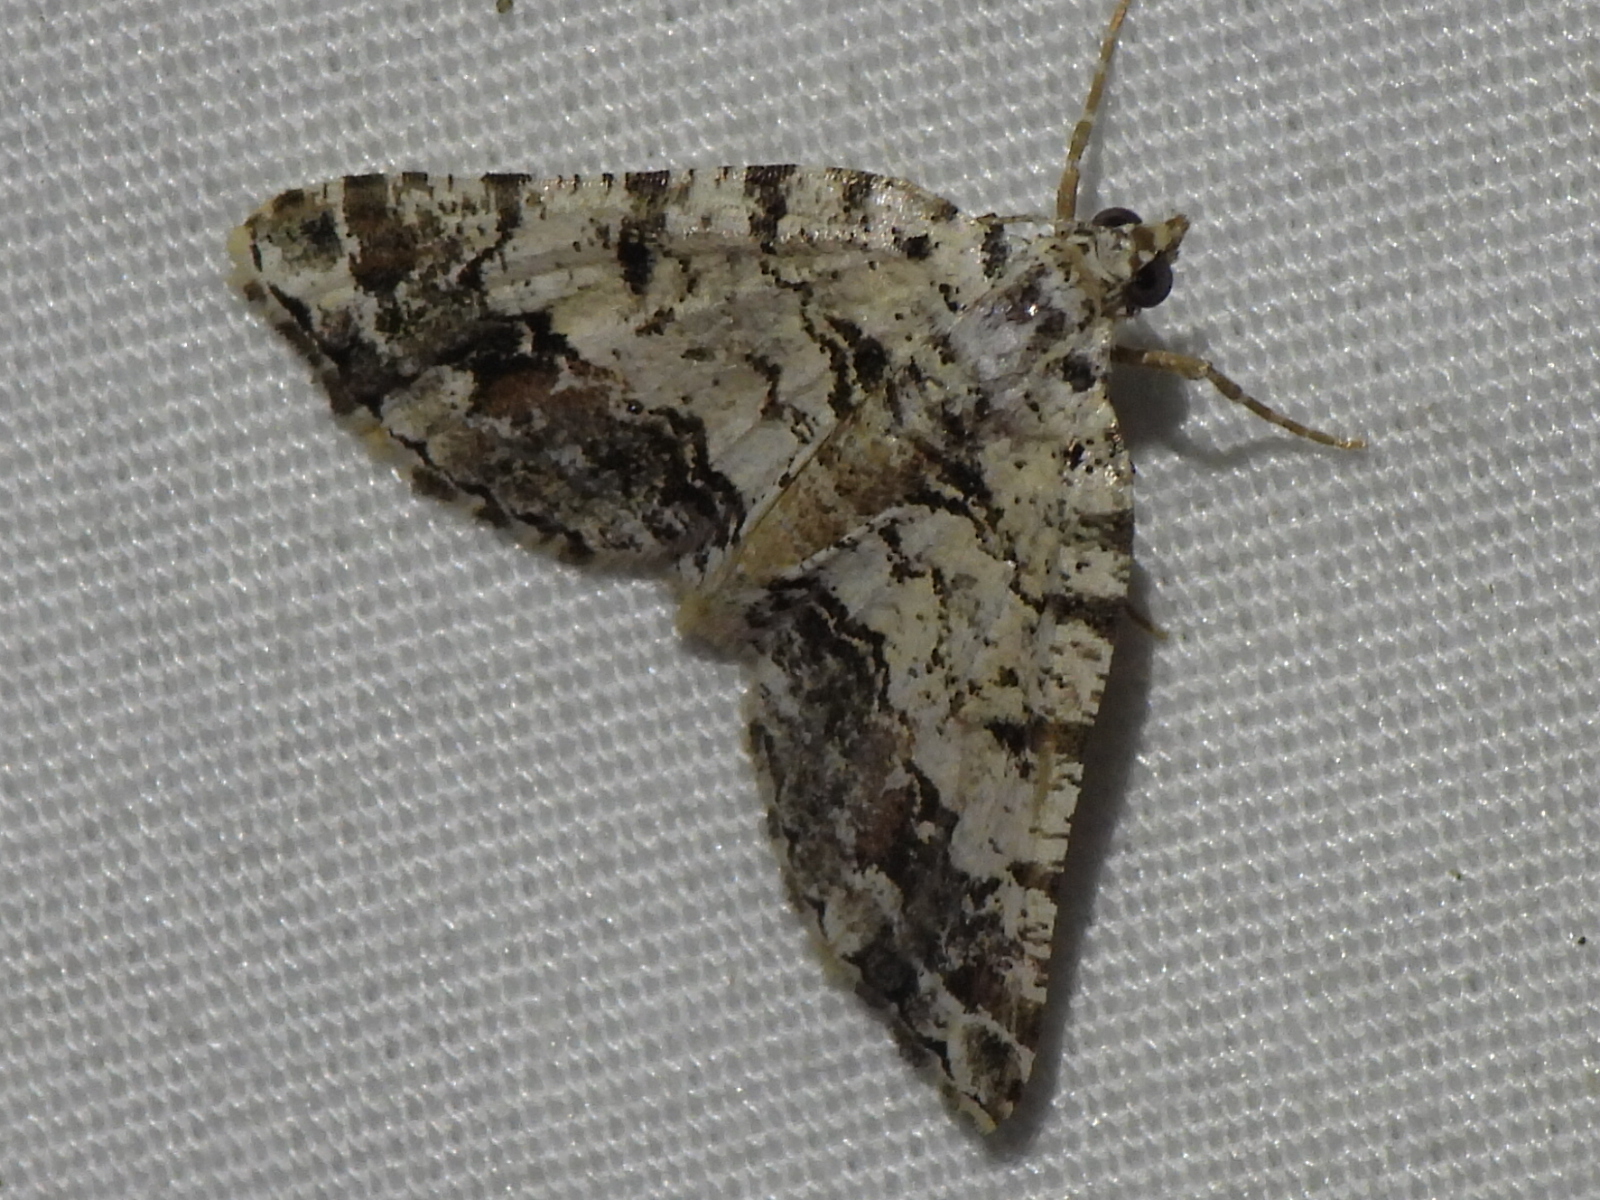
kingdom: Animalia
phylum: Arthropoda
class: Insecta
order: Lepidoptera
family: Geometridae
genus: Macaria
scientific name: Macaria graphidaria
